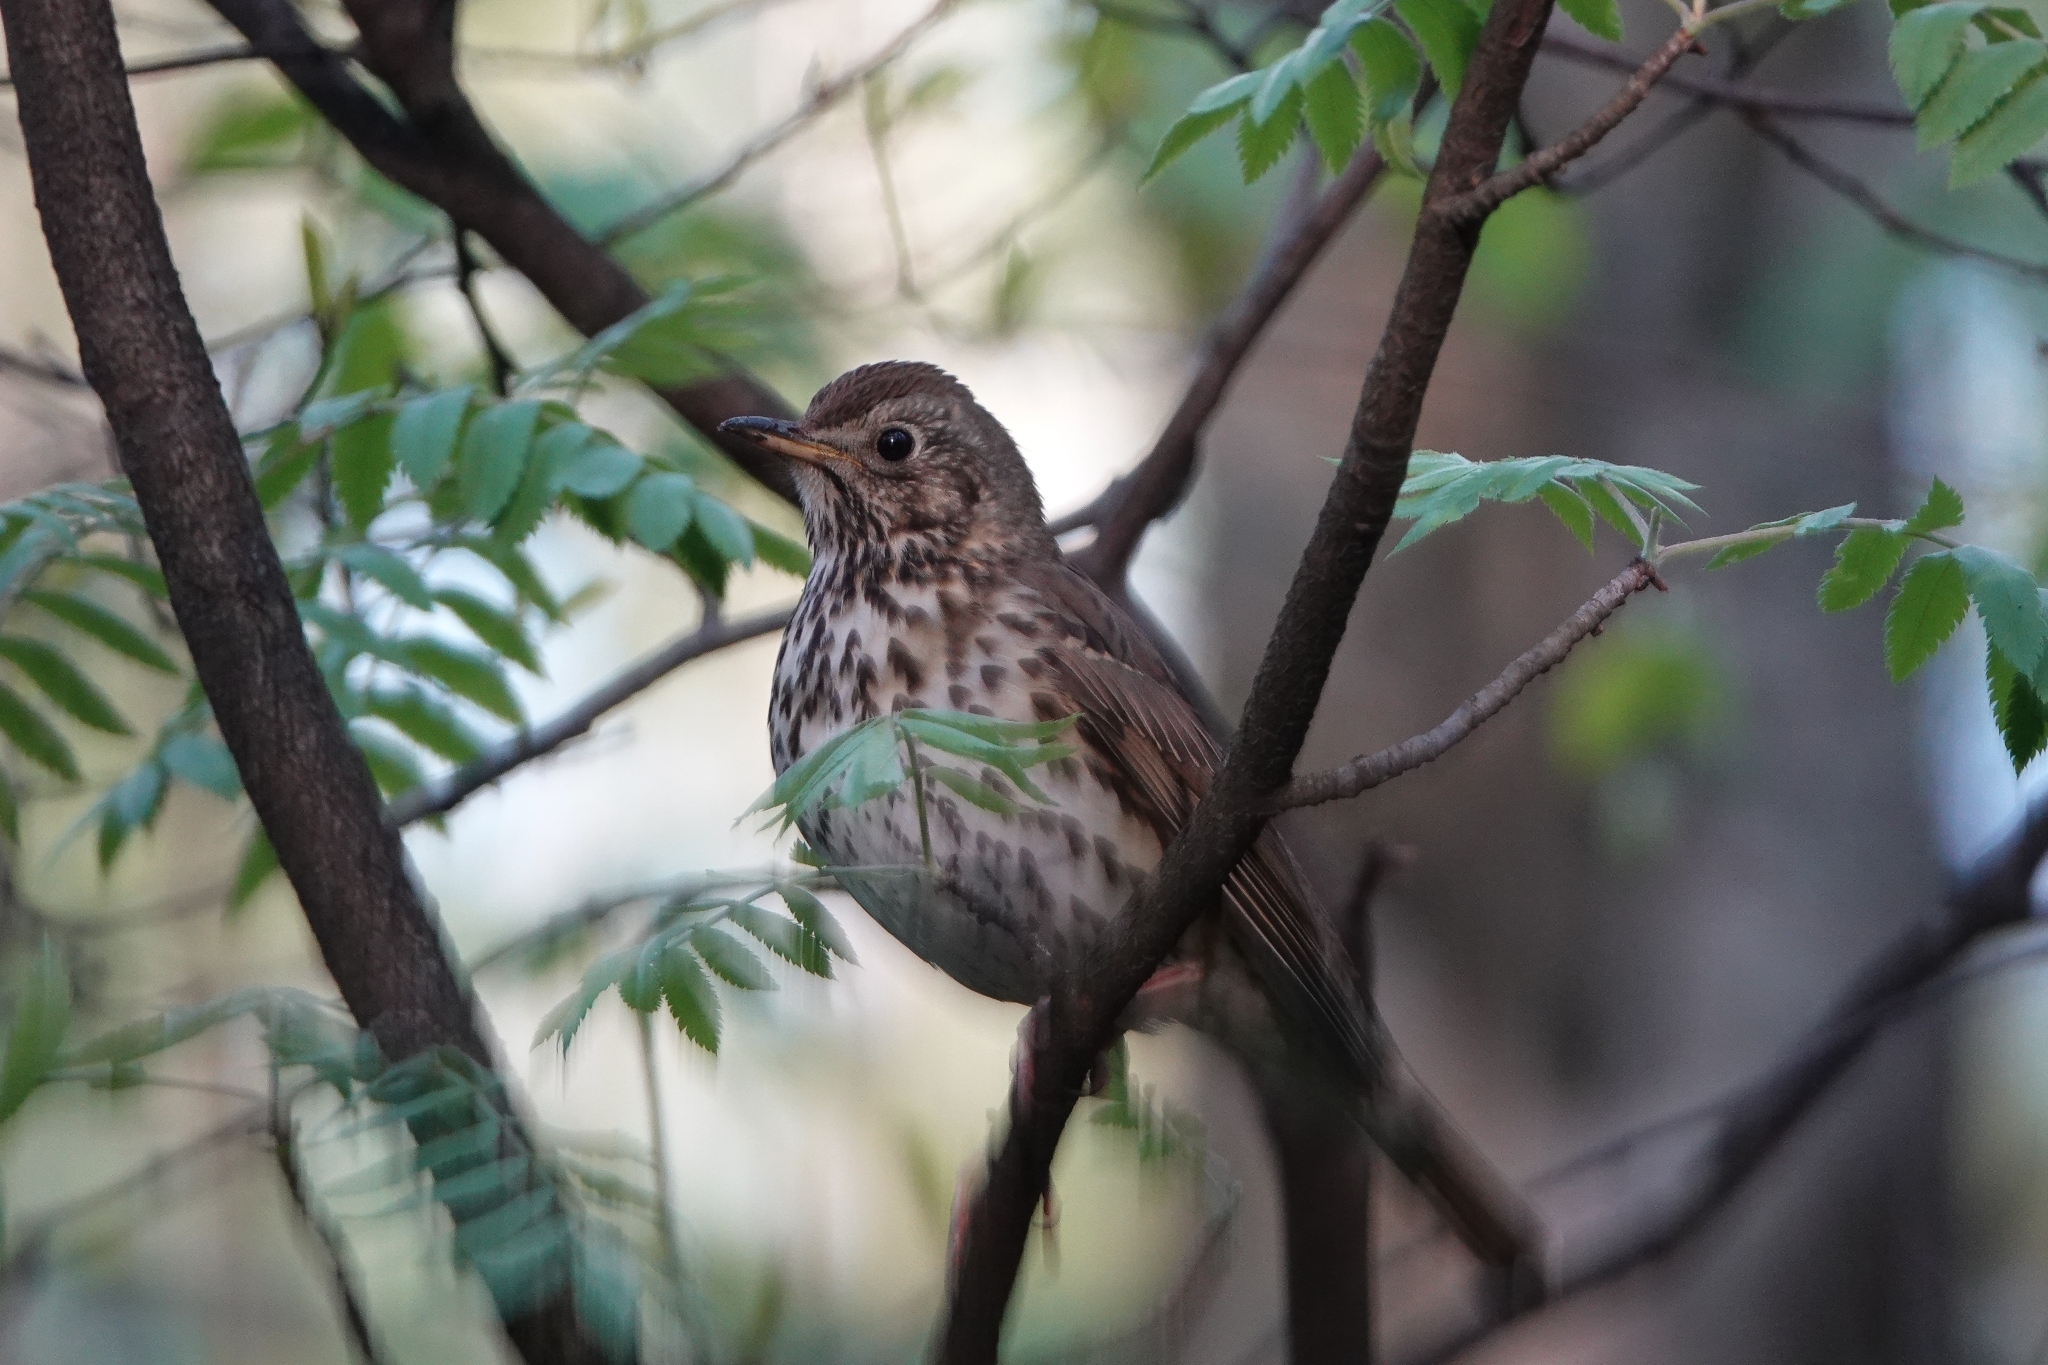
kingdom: Animalia
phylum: Chordata
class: Aves
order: Passeriformes
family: Turdidae
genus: Turdus
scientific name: Turdus philomelos
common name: Song thrush
